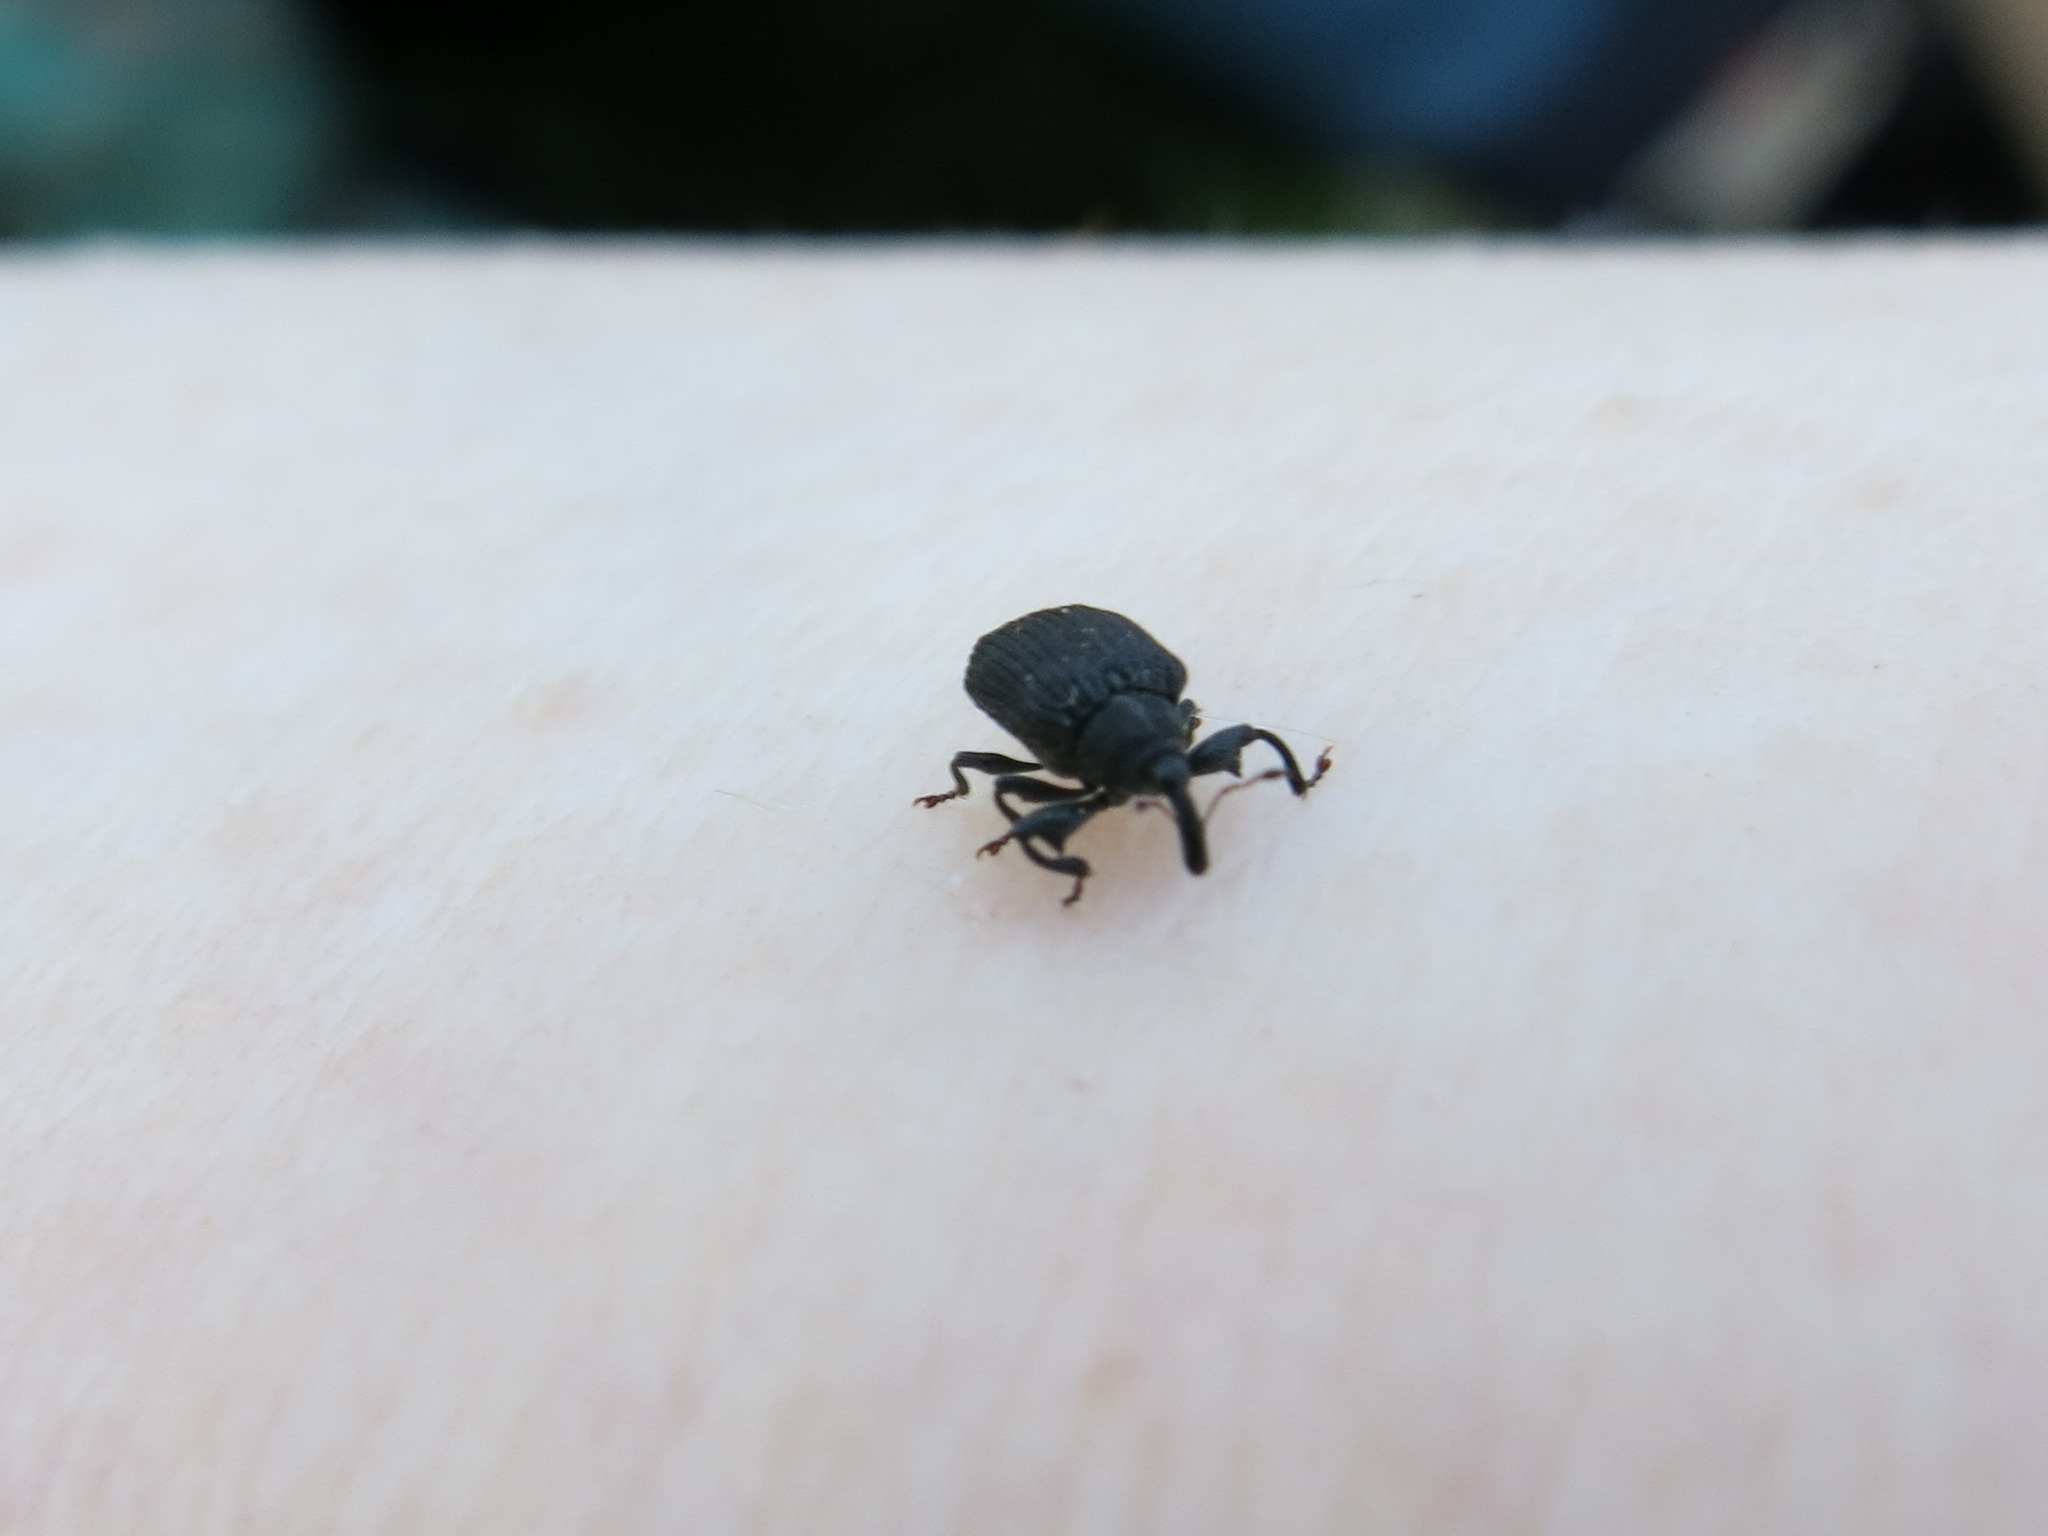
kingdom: Animalia
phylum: Arthropoda
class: Insecta
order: Coleoptera
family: Curculionidae
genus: Odontopus
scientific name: Odontopus calceatus
